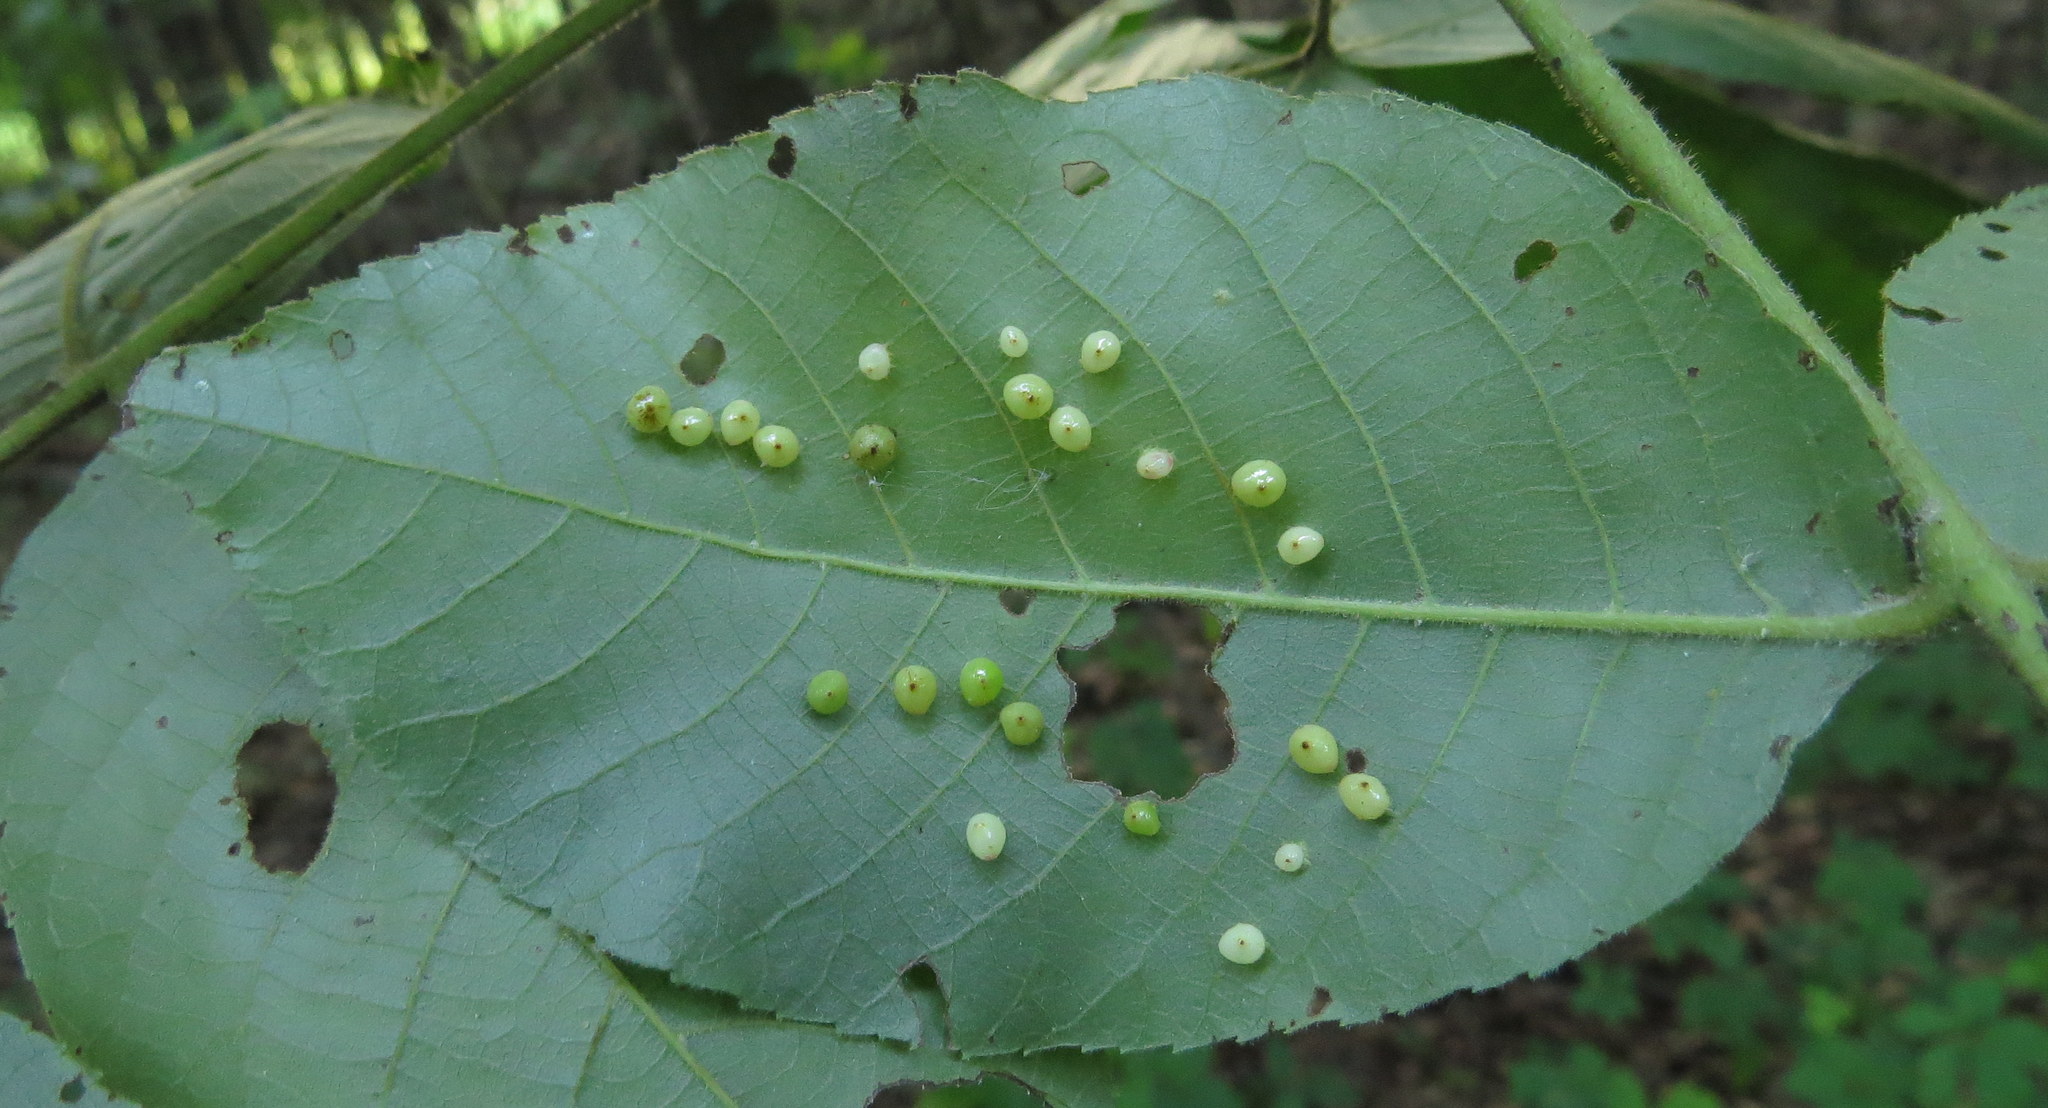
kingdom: Animalia
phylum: Arthropoda
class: Insecta
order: Diptera
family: Cecidomyiidae
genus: Caryomyia
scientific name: Caryomyia caryae
